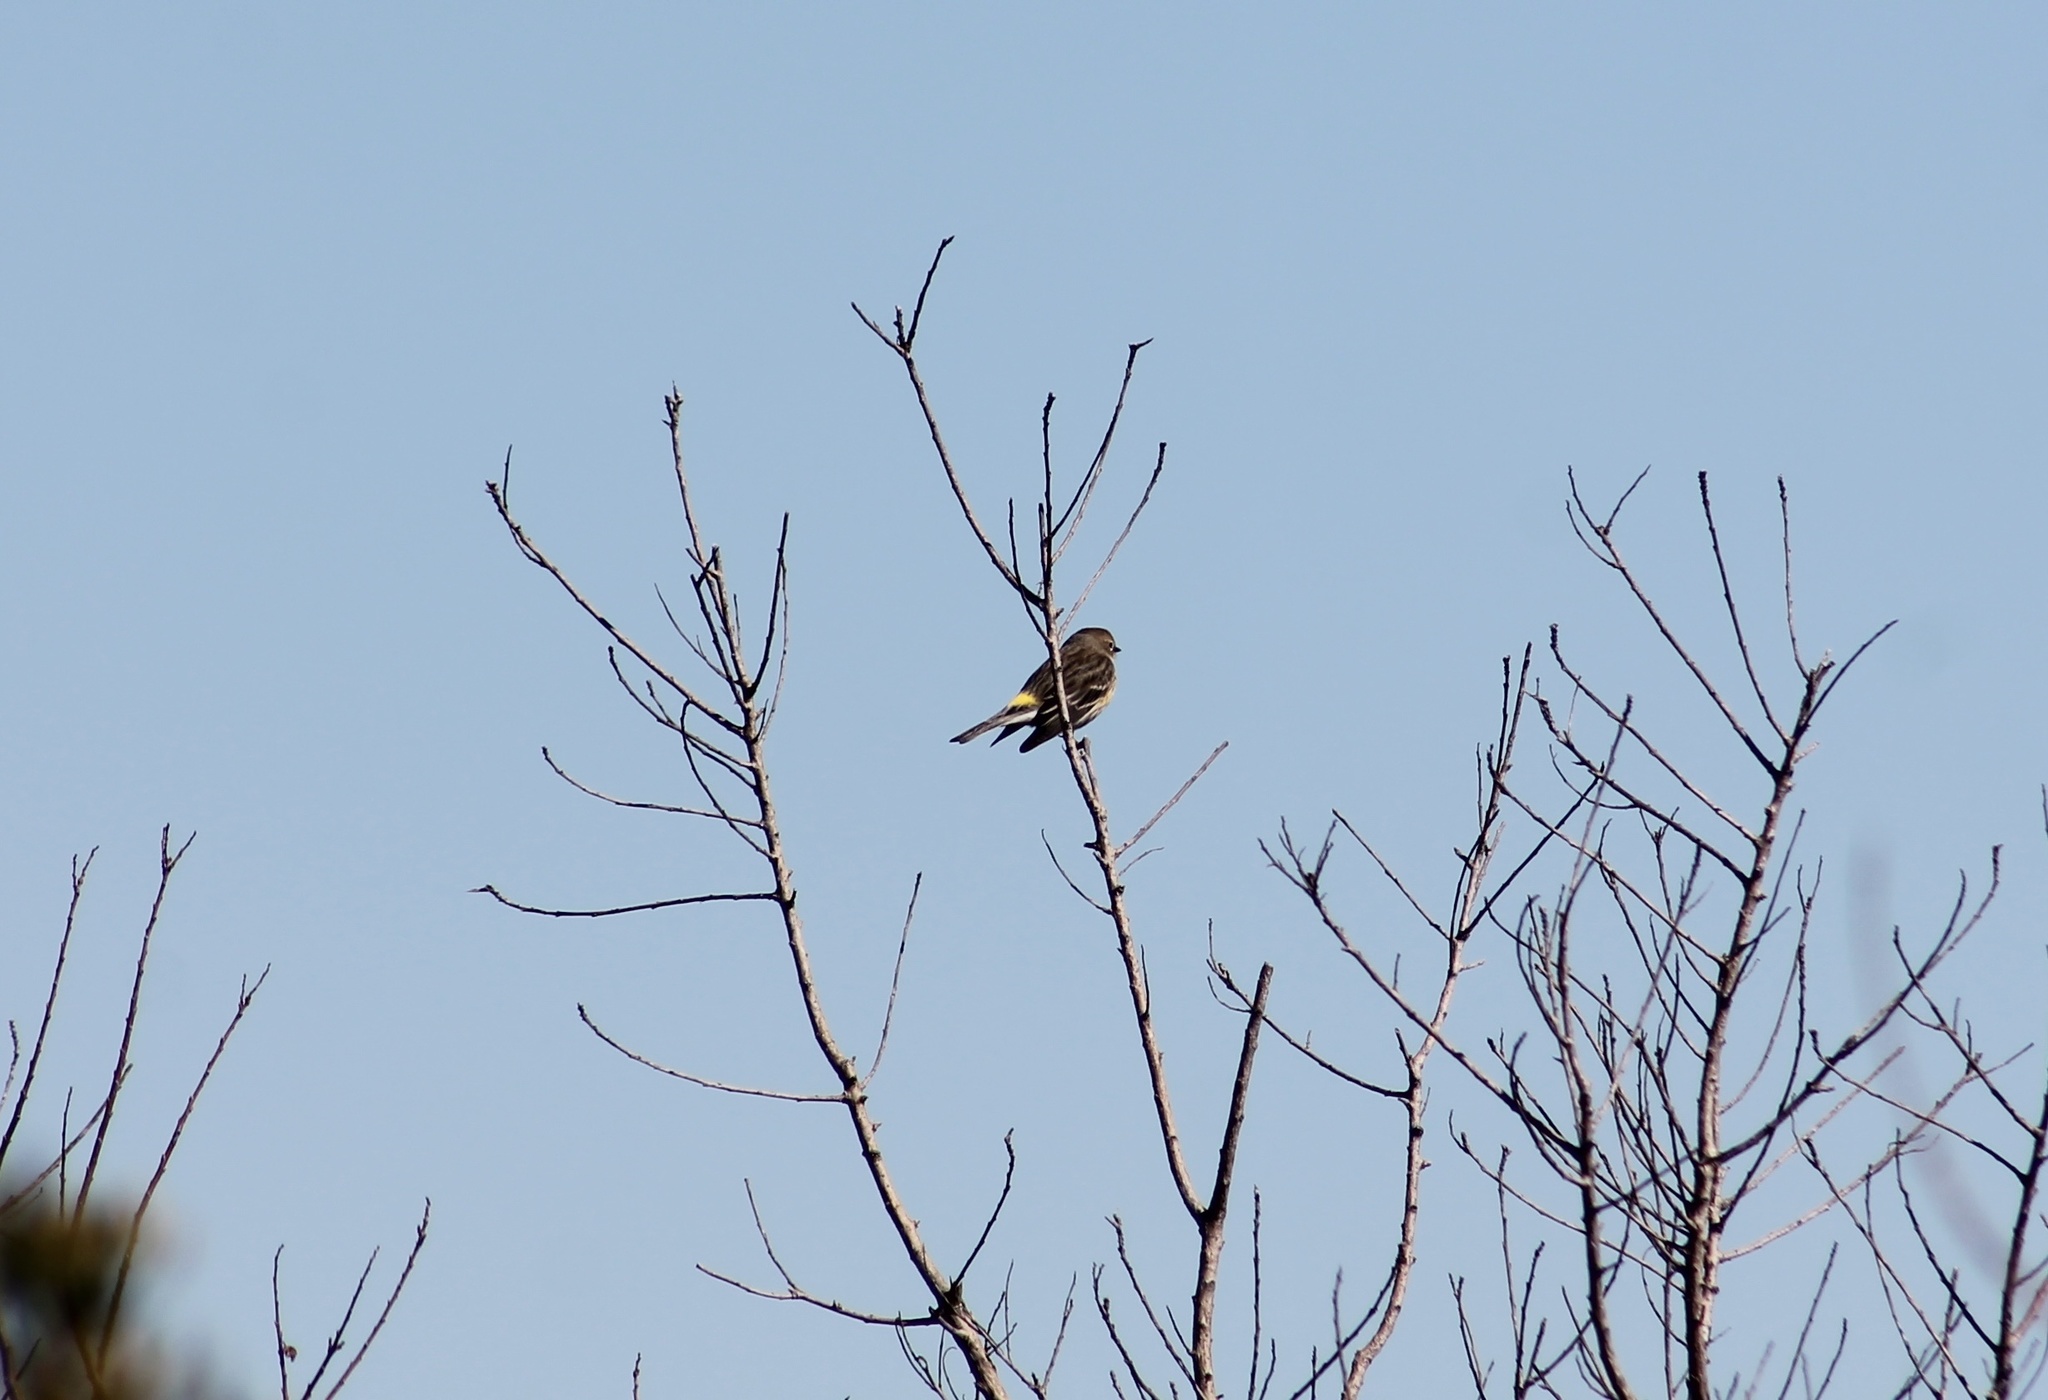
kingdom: Animalia
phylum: Chordata
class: Aves
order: Passeriformes
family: Parulidae
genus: Setophaga
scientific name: Setophaga coronata
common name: Myrtle warbler
